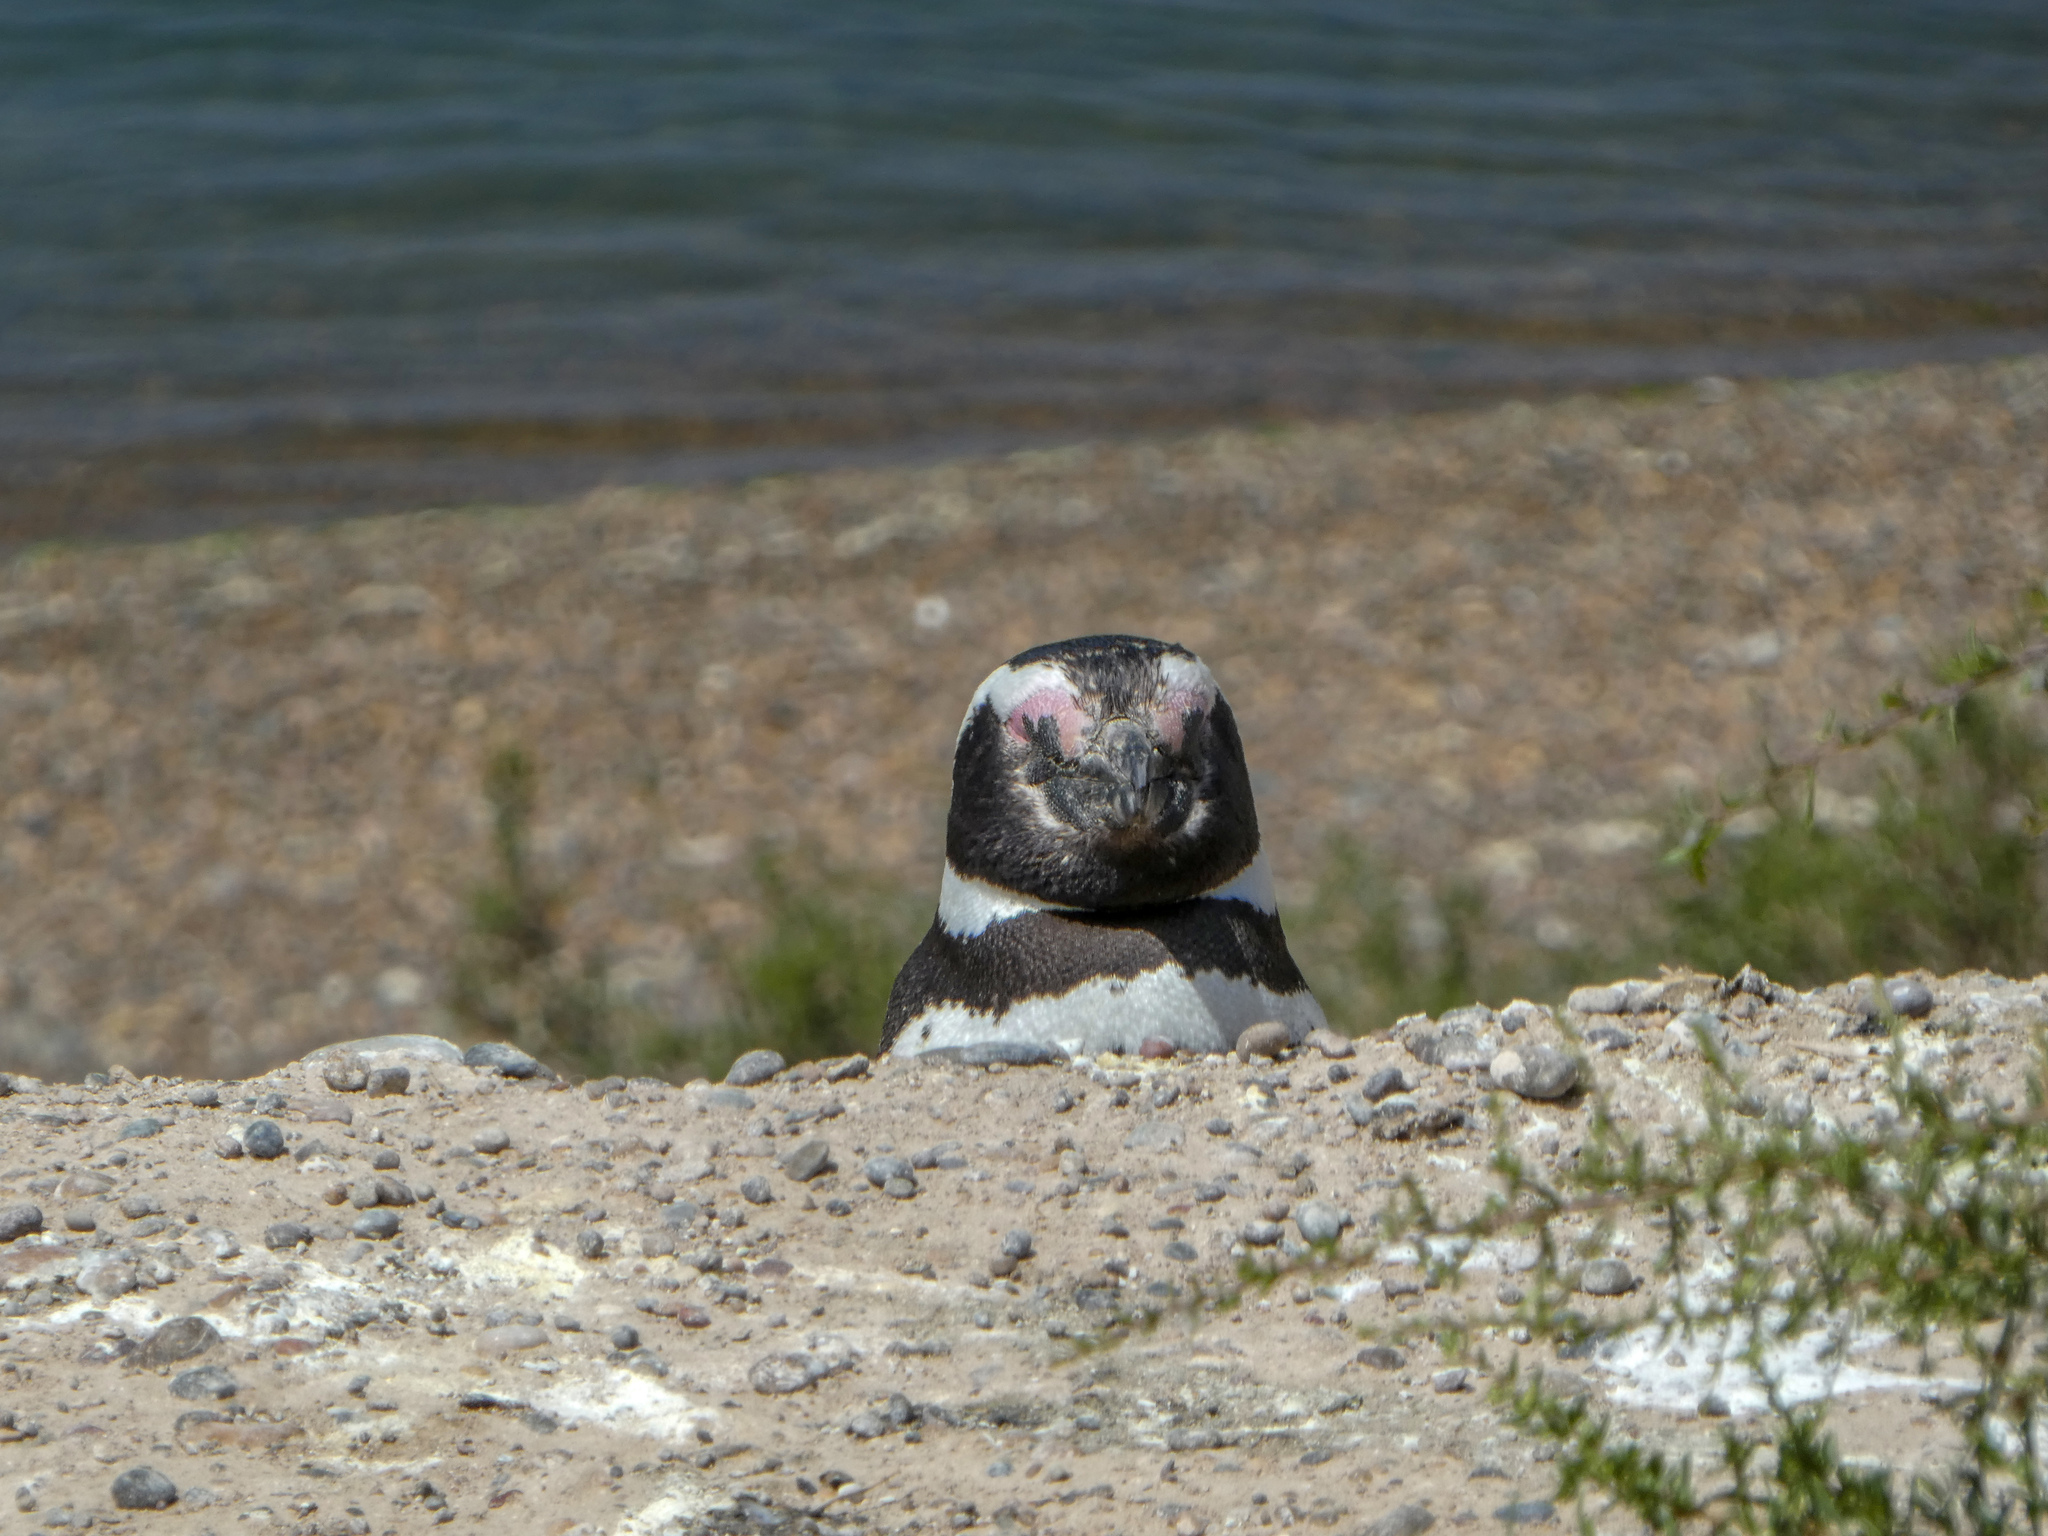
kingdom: Animalia
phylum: Chordata
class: Aves
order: Sphenisciformes
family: Spheniscidae
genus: Spheniscus
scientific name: Spheniscus magellanicus
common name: Magellanic penguin
